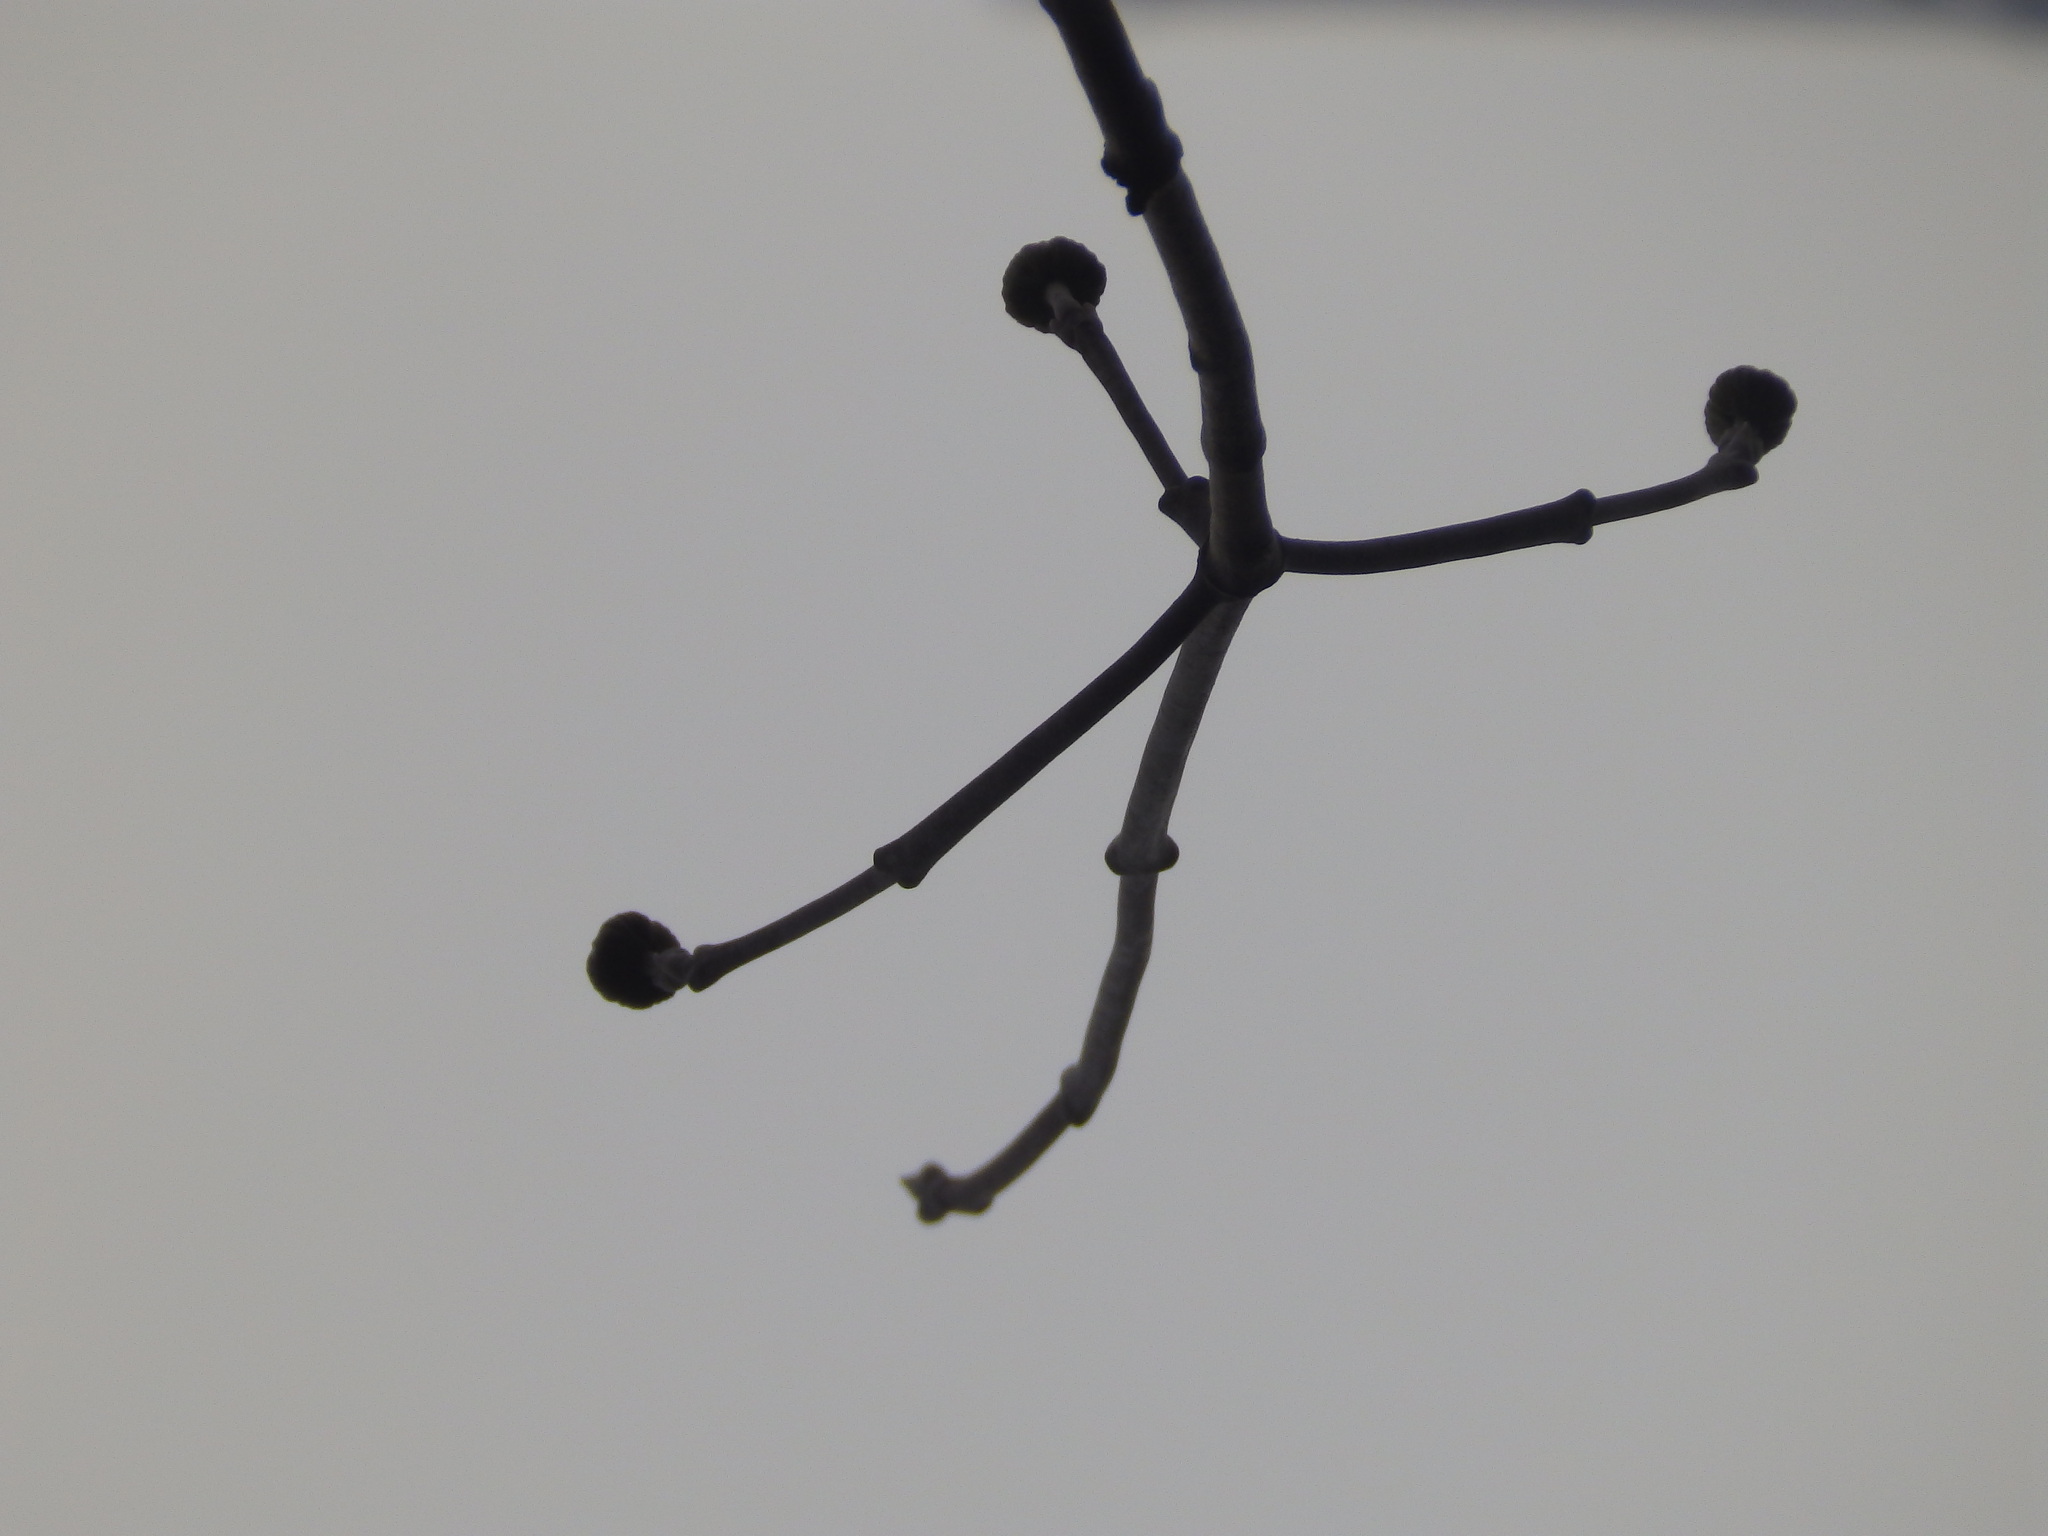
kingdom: Plantae
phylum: Tracheophyta
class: Magnoliopsida
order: Cornales
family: Cornaceae
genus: Cornus
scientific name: Cornus florida
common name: Flowering dogwood
